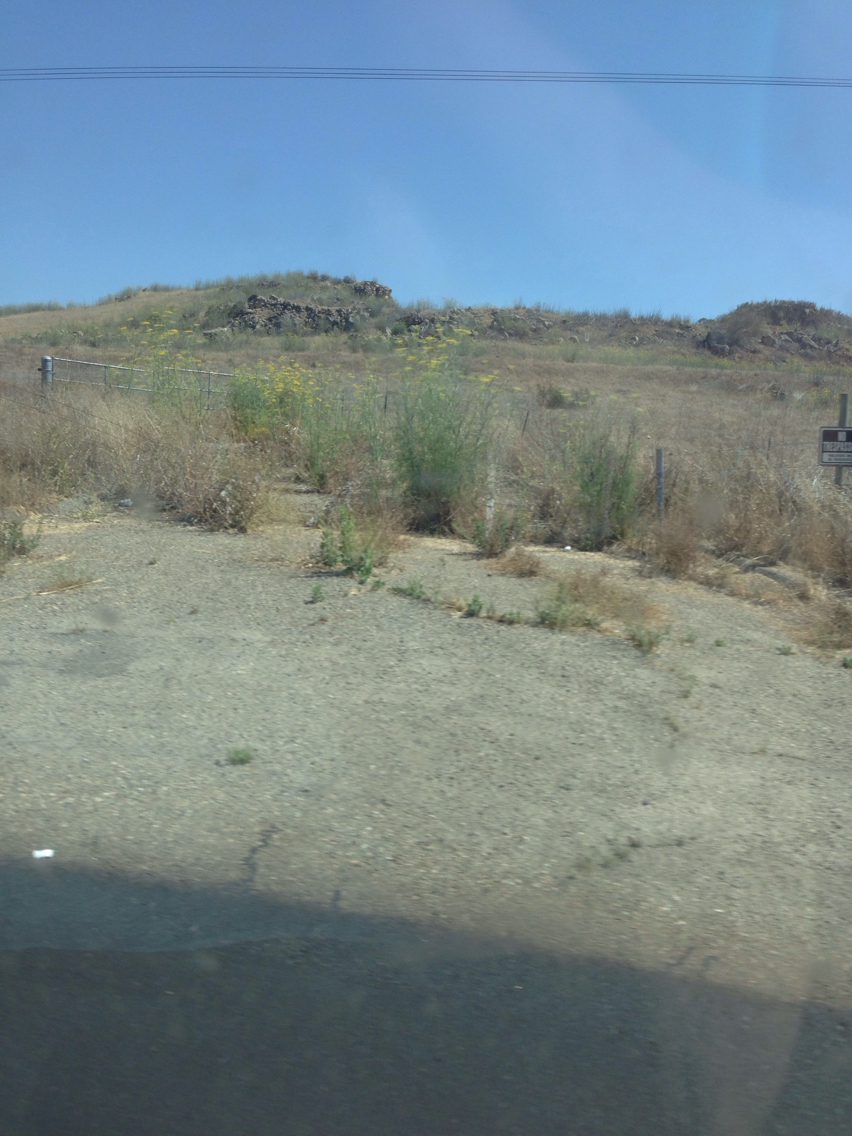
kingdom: Plantae
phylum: Tracheophyta
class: Magnoliopsida
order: Apiales
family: Apiaceae
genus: Foeniculum
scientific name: Foeniculum vulgare
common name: Fennel
